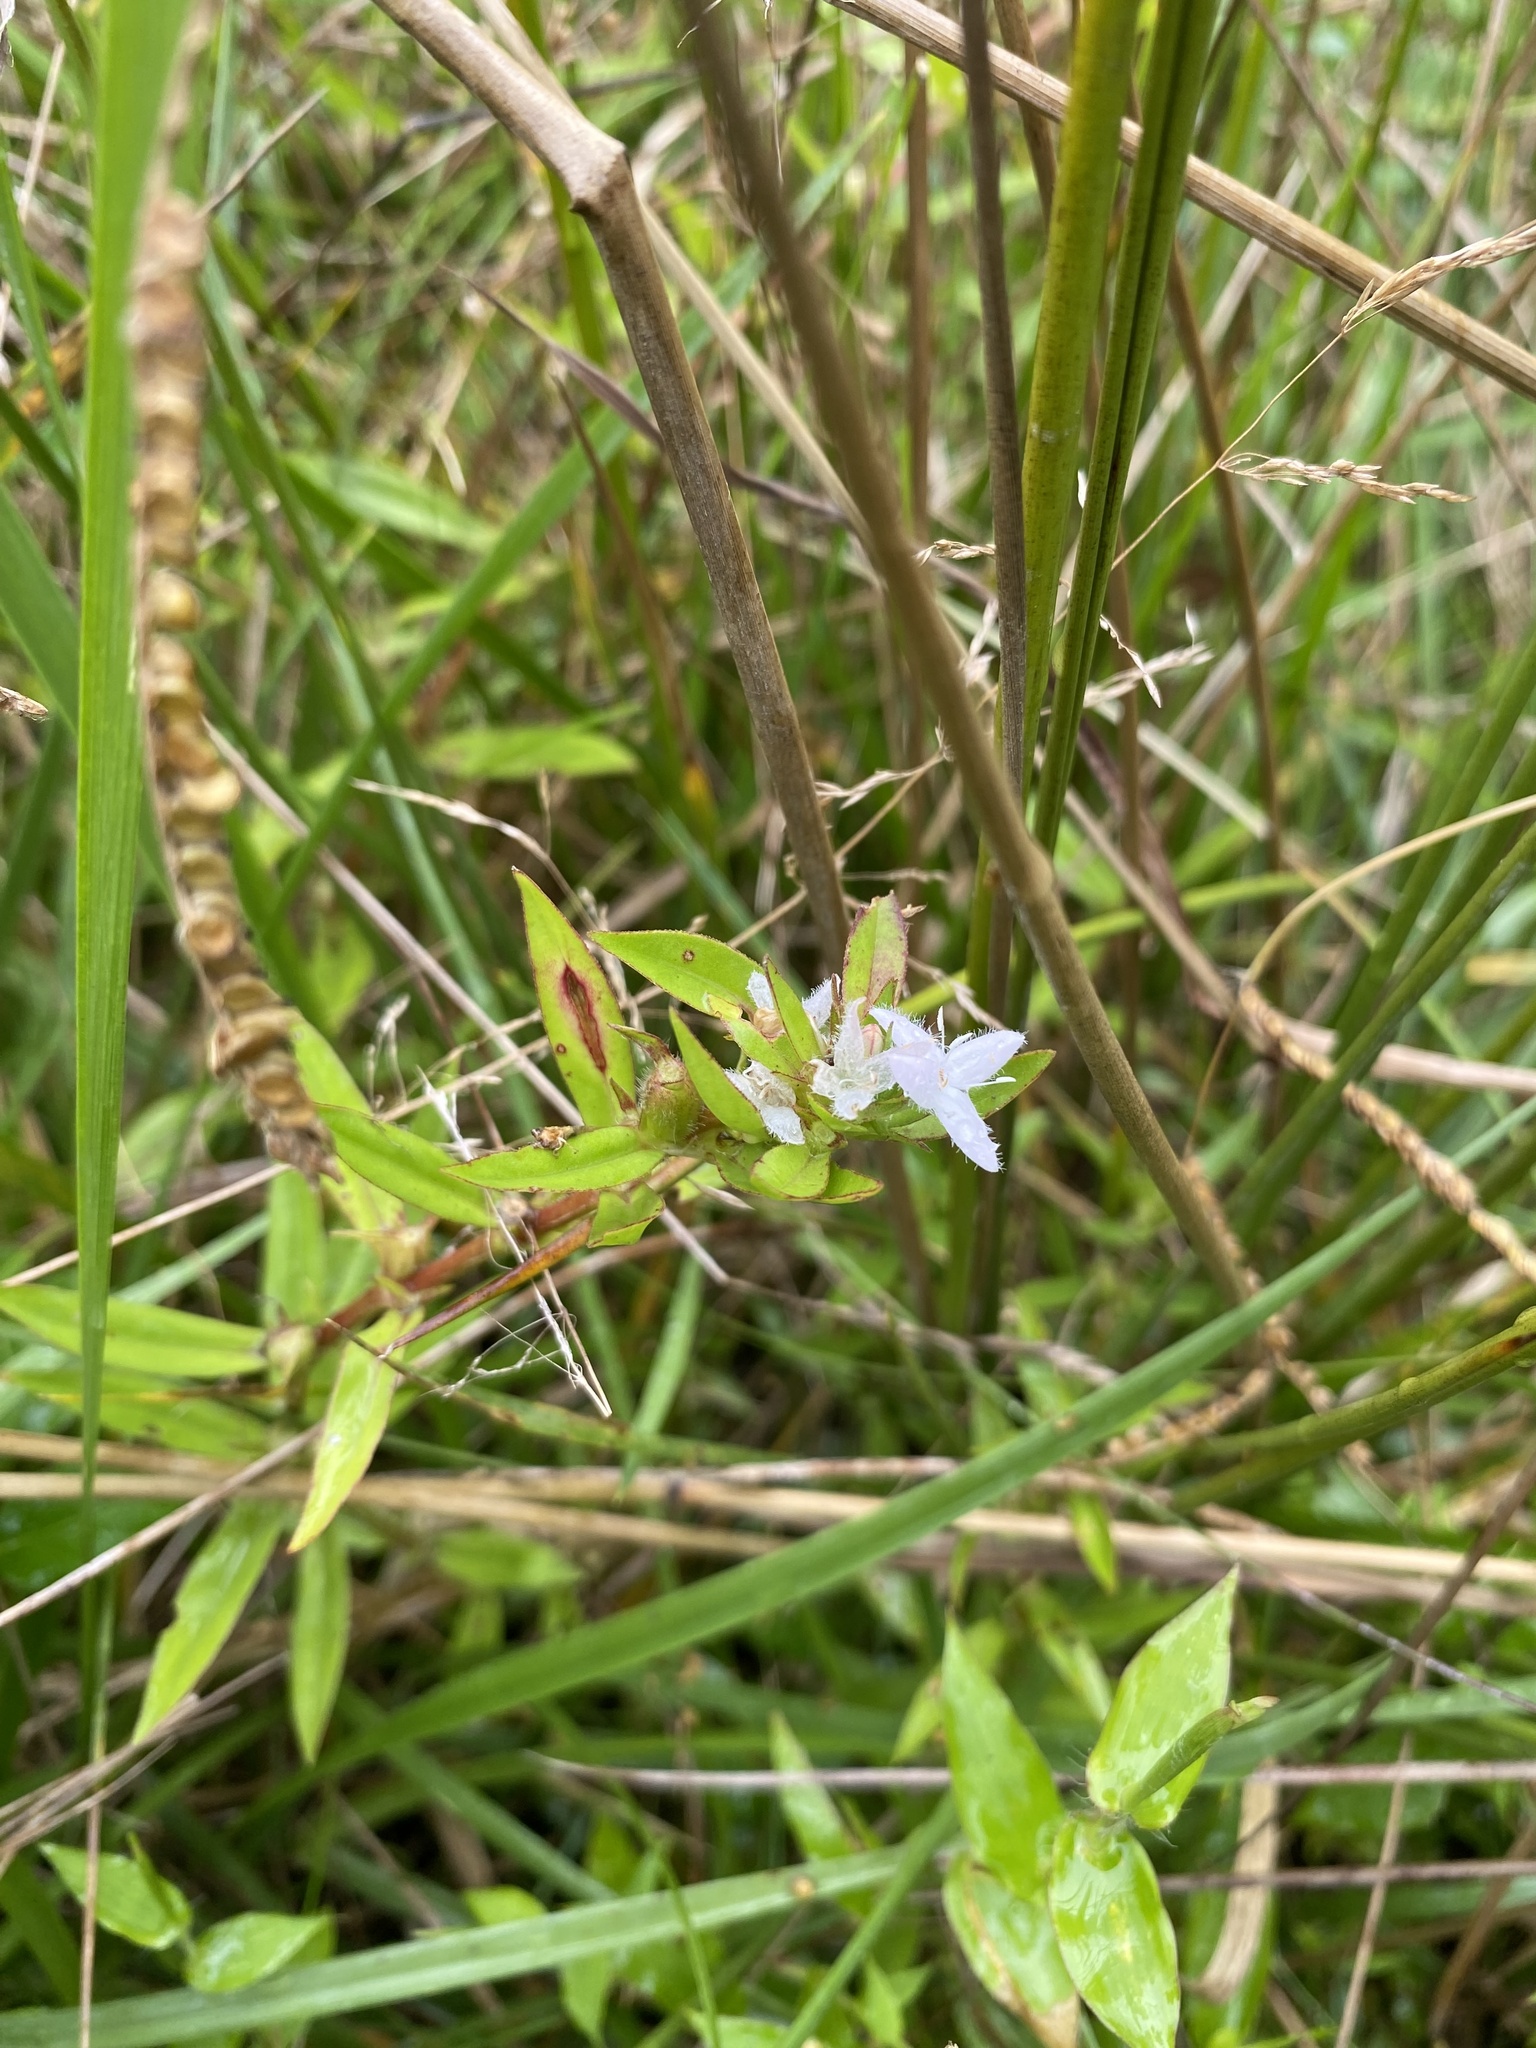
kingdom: Plantae
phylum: Tracheophyta
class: Magnoliopsida
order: Gentianales
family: Rubiaceae
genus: Diodia
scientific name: Diodia virginiana
